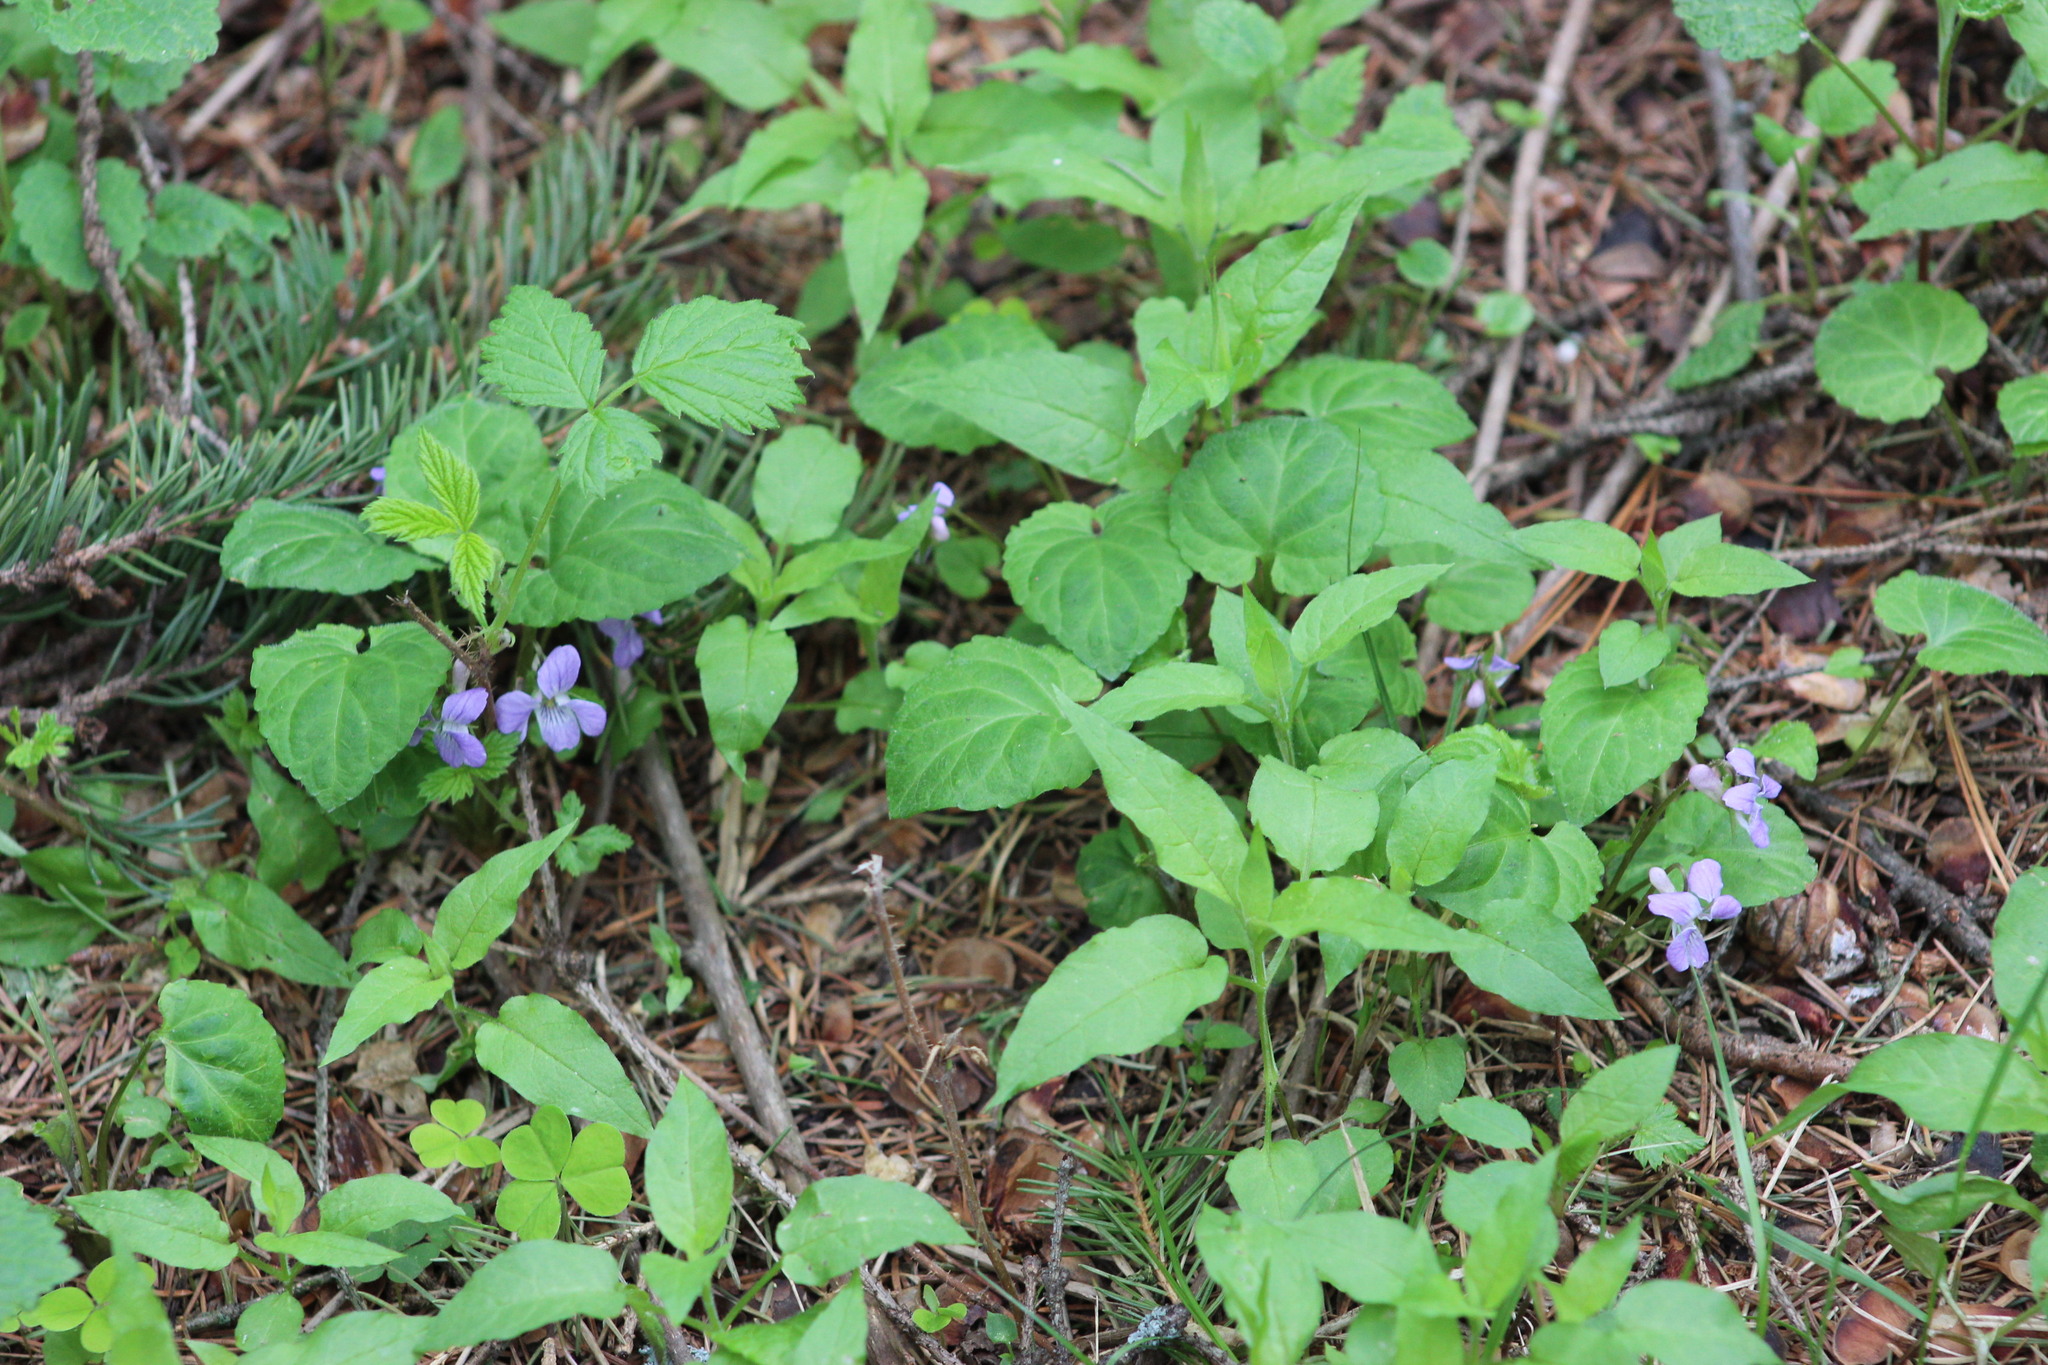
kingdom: Plantae
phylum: Tracheophyta
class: Magnoliopsida
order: Malpighiales
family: Violaceae
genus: Viola
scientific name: Viola selkirkii
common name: Selkirk's violet
